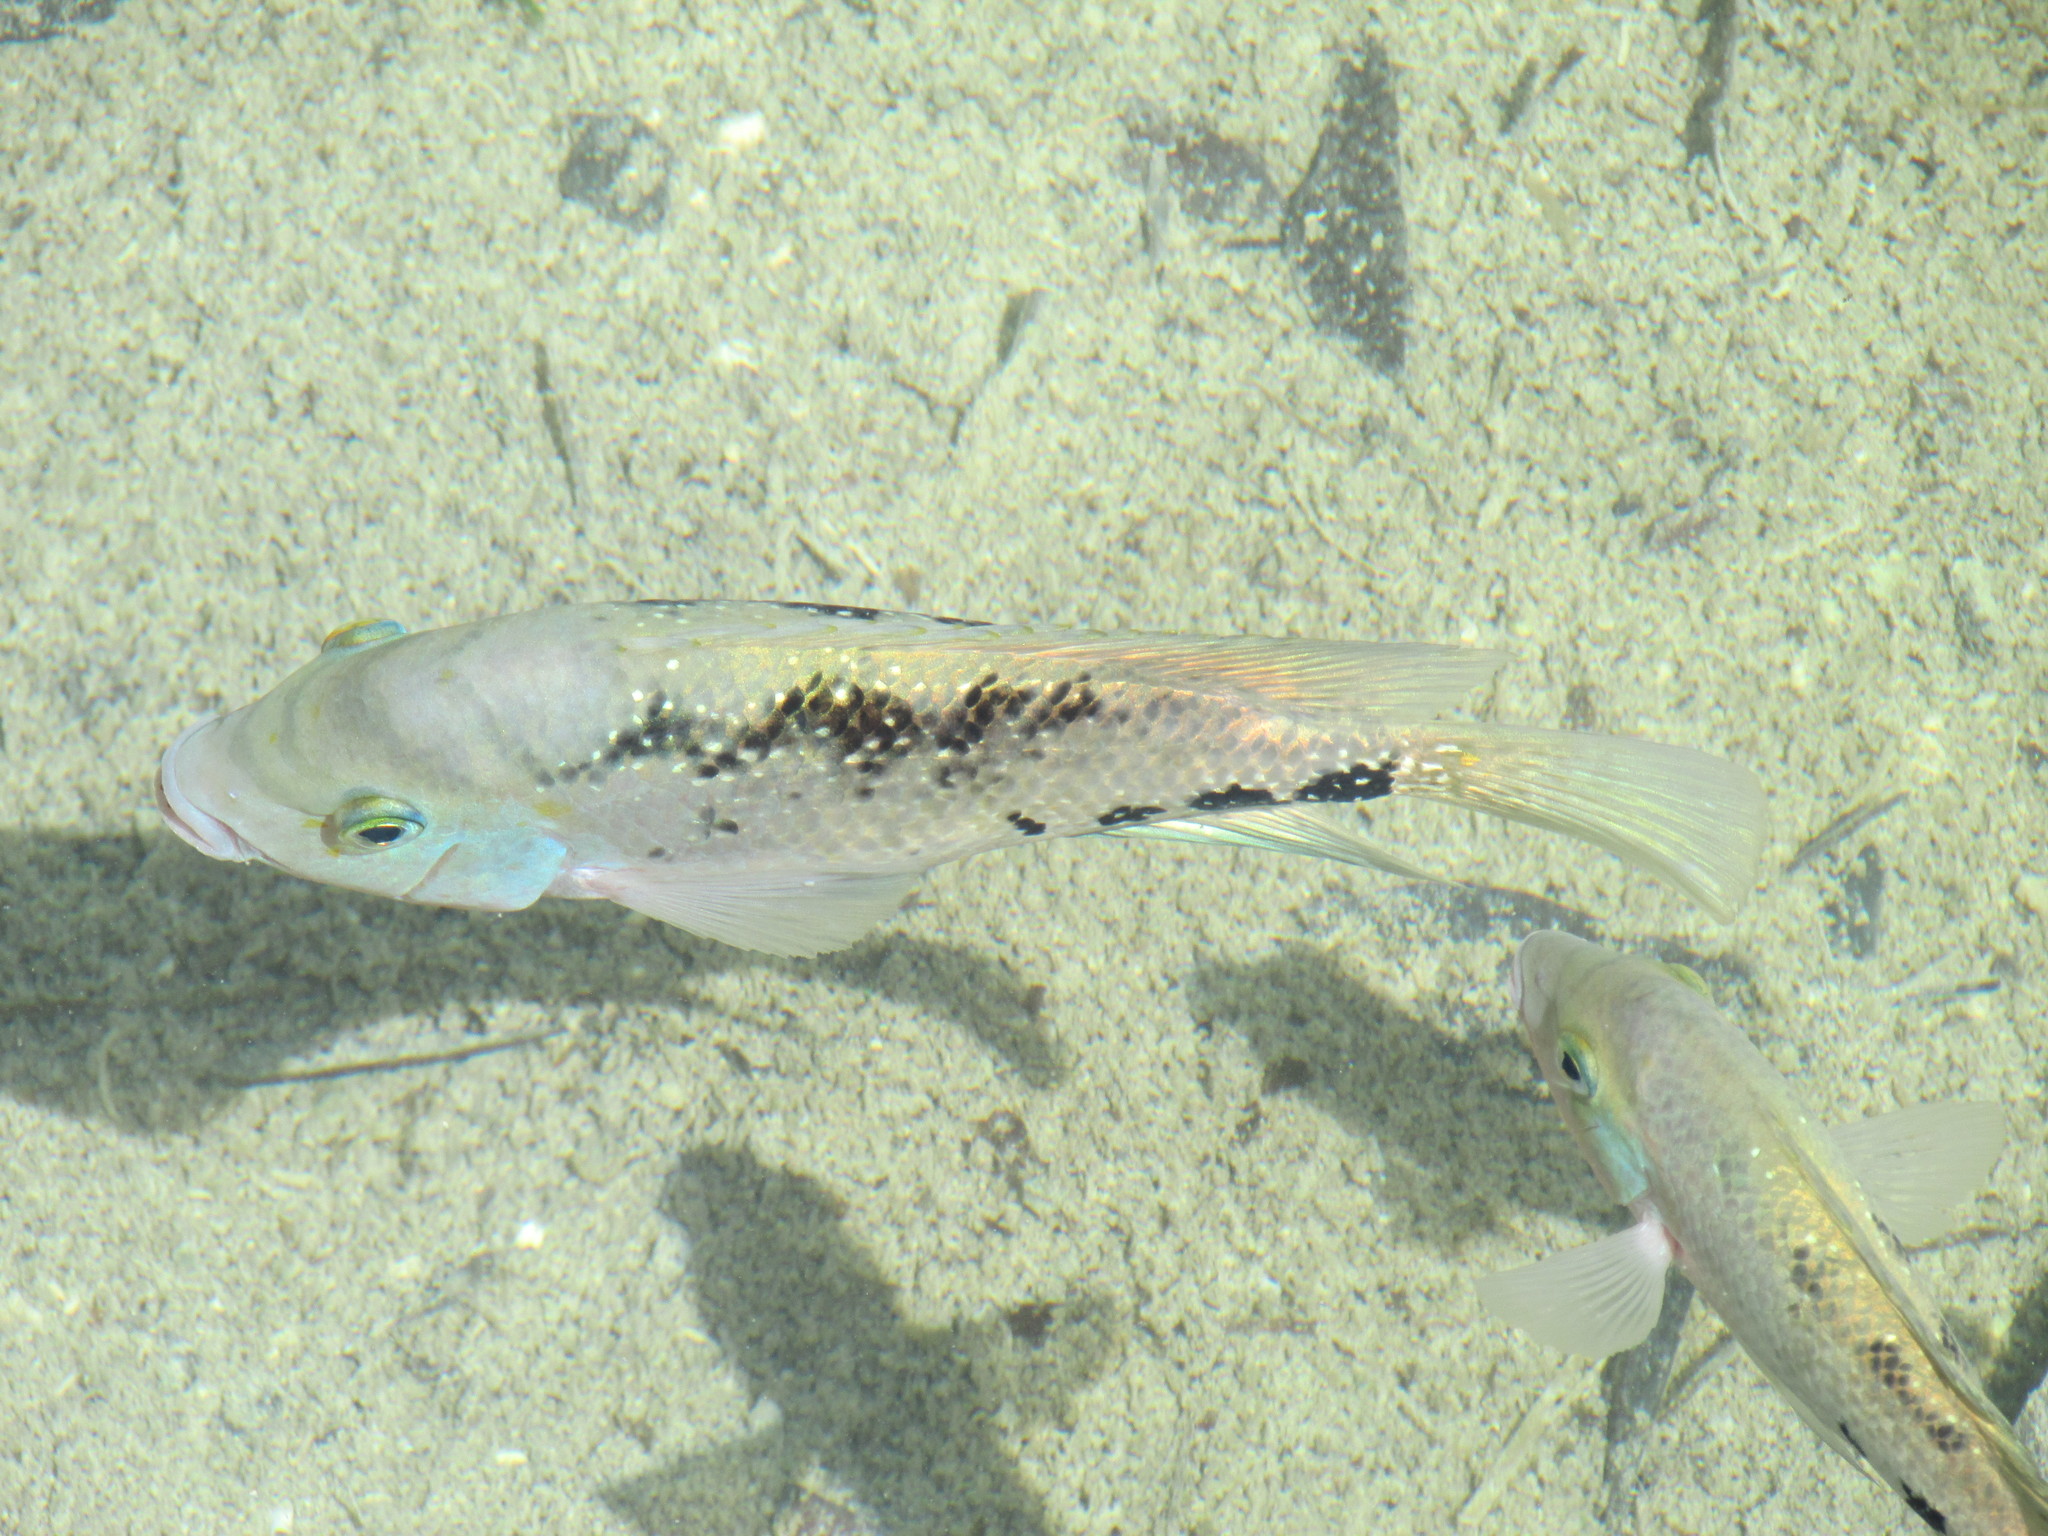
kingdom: Animalia
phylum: Chordata
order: Perciformes
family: Cichlidae
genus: Vieja
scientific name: Vieja melanura
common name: Redhead cichlid
